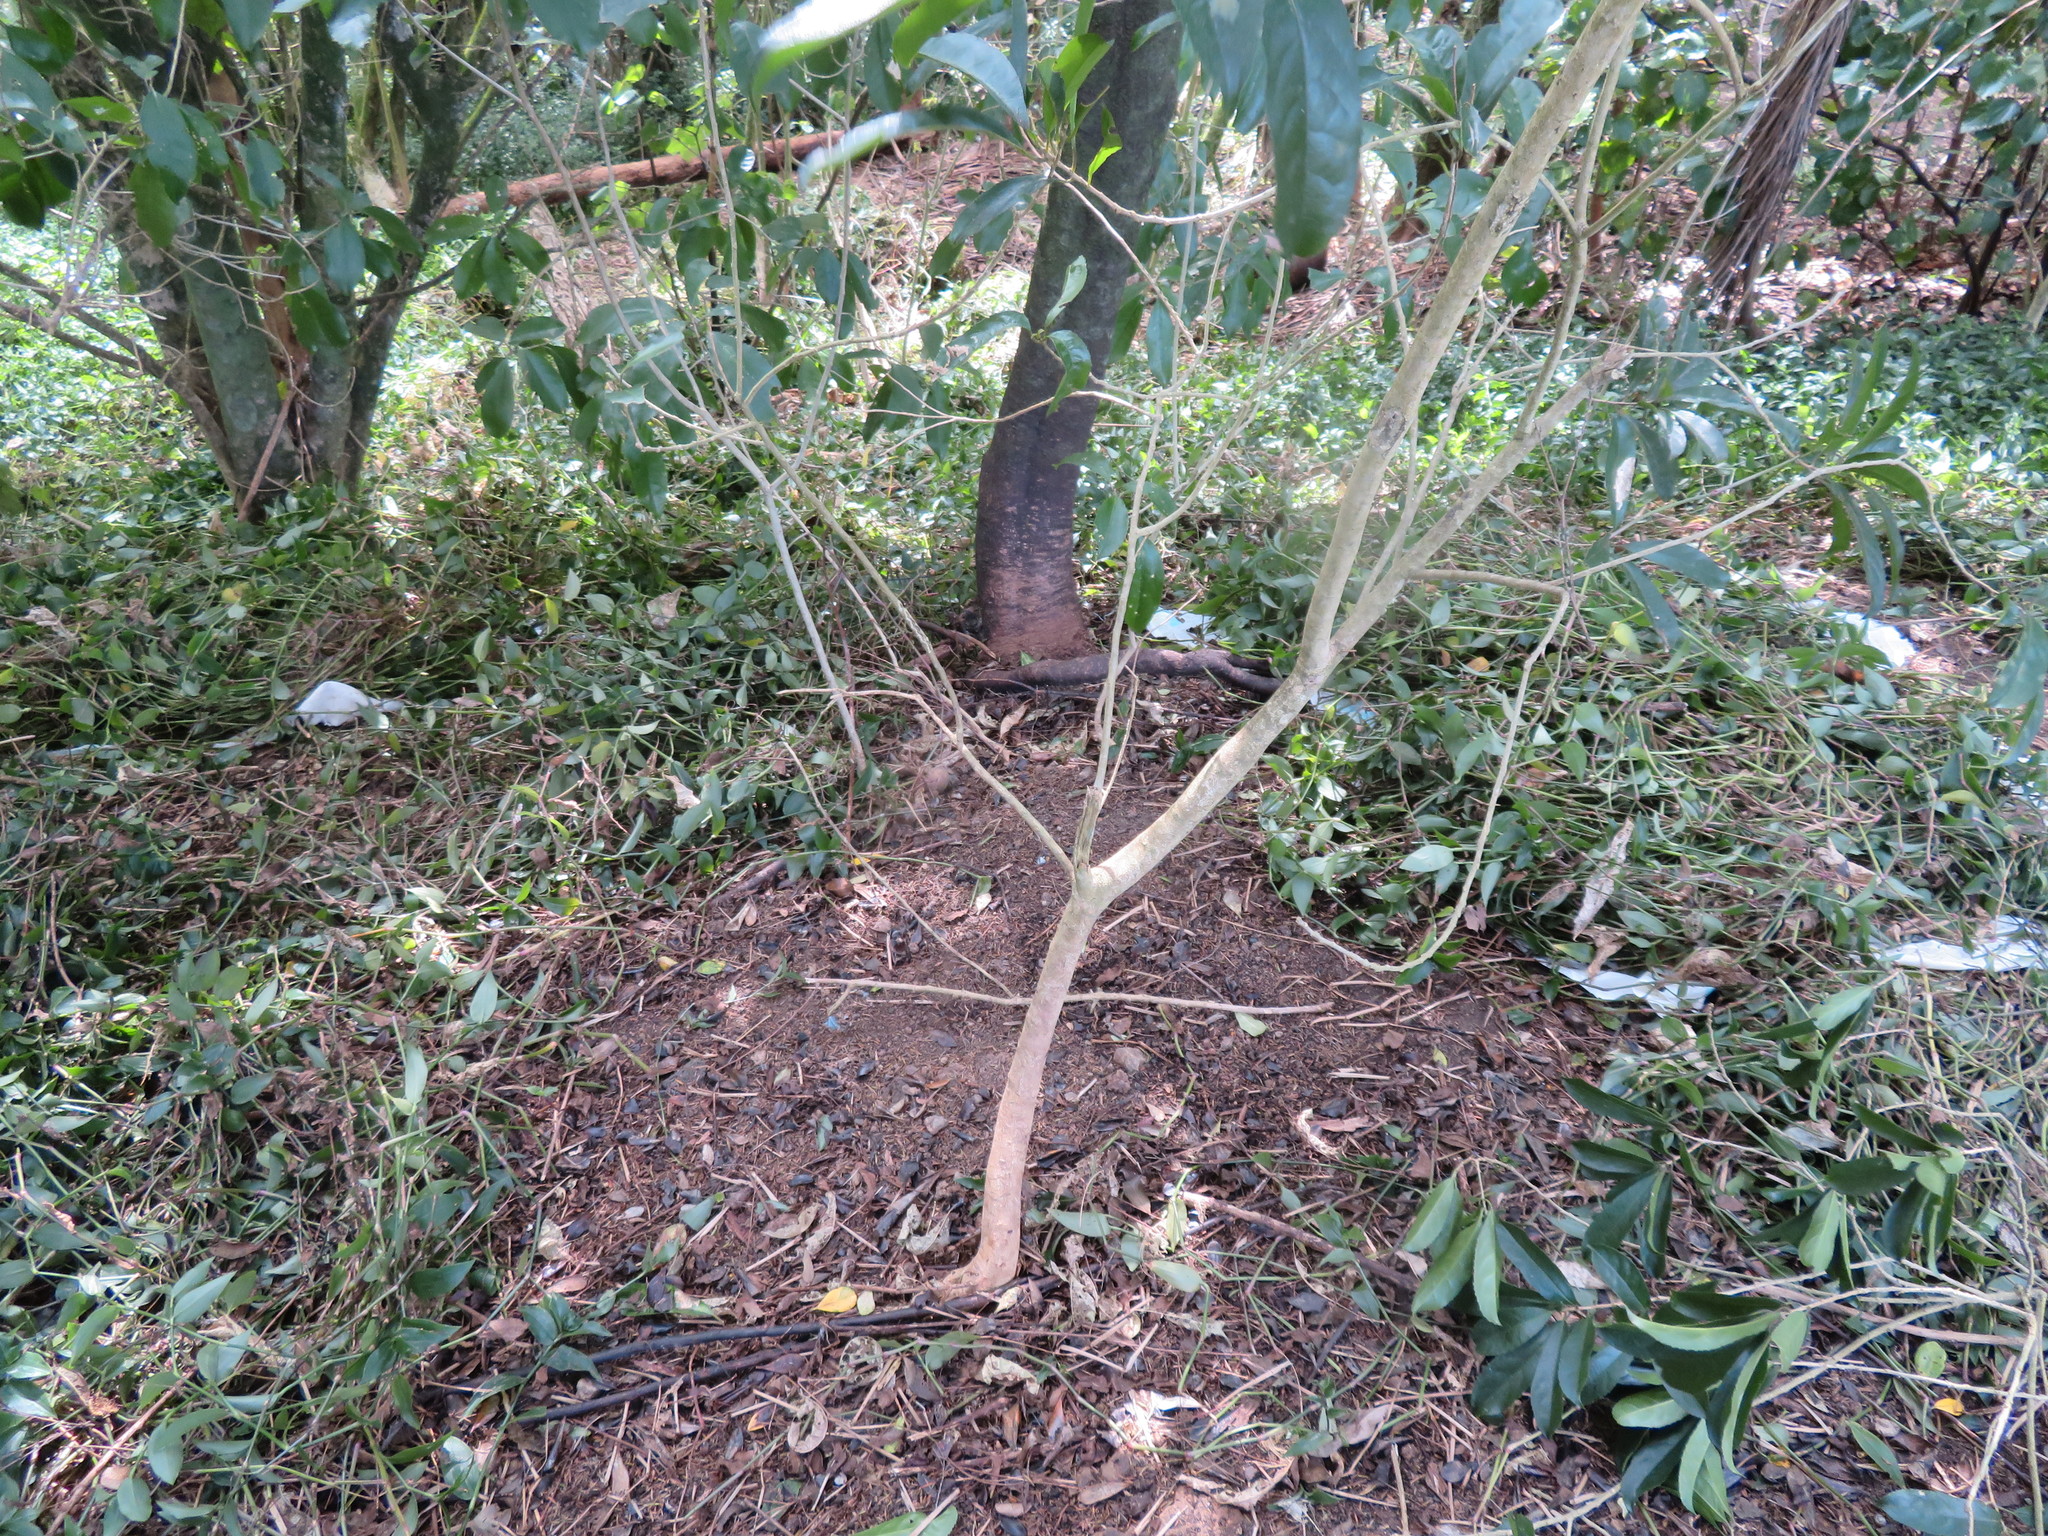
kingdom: Plantae
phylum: Tracheophyta
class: Liliopsida
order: Commelinales
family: Commelinaceae
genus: Tradescantia
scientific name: Tradescantia fluminensis
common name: Wandering-jew
